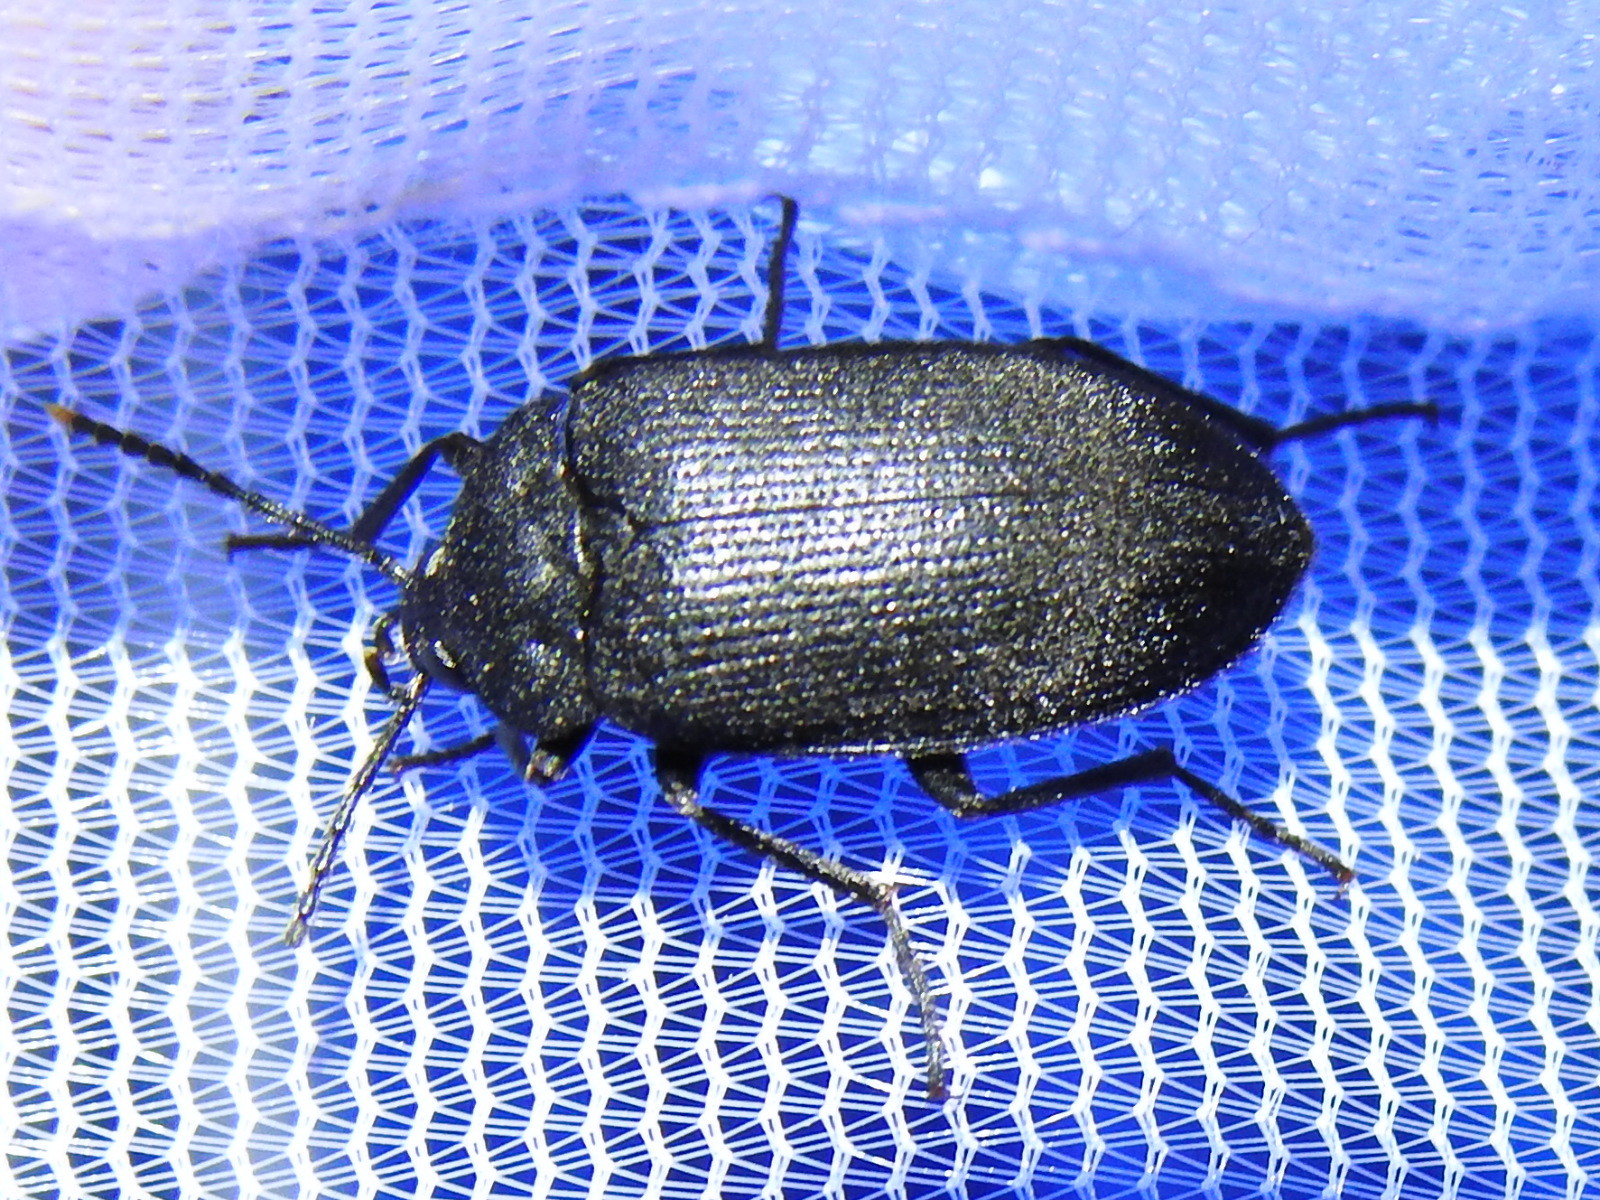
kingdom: Animalia
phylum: Arthropoda
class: Insecta
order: Coleoptera
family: Tetratomidae
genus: Penthe
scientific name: Penthe pimelia
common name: Velvety bark beetle
